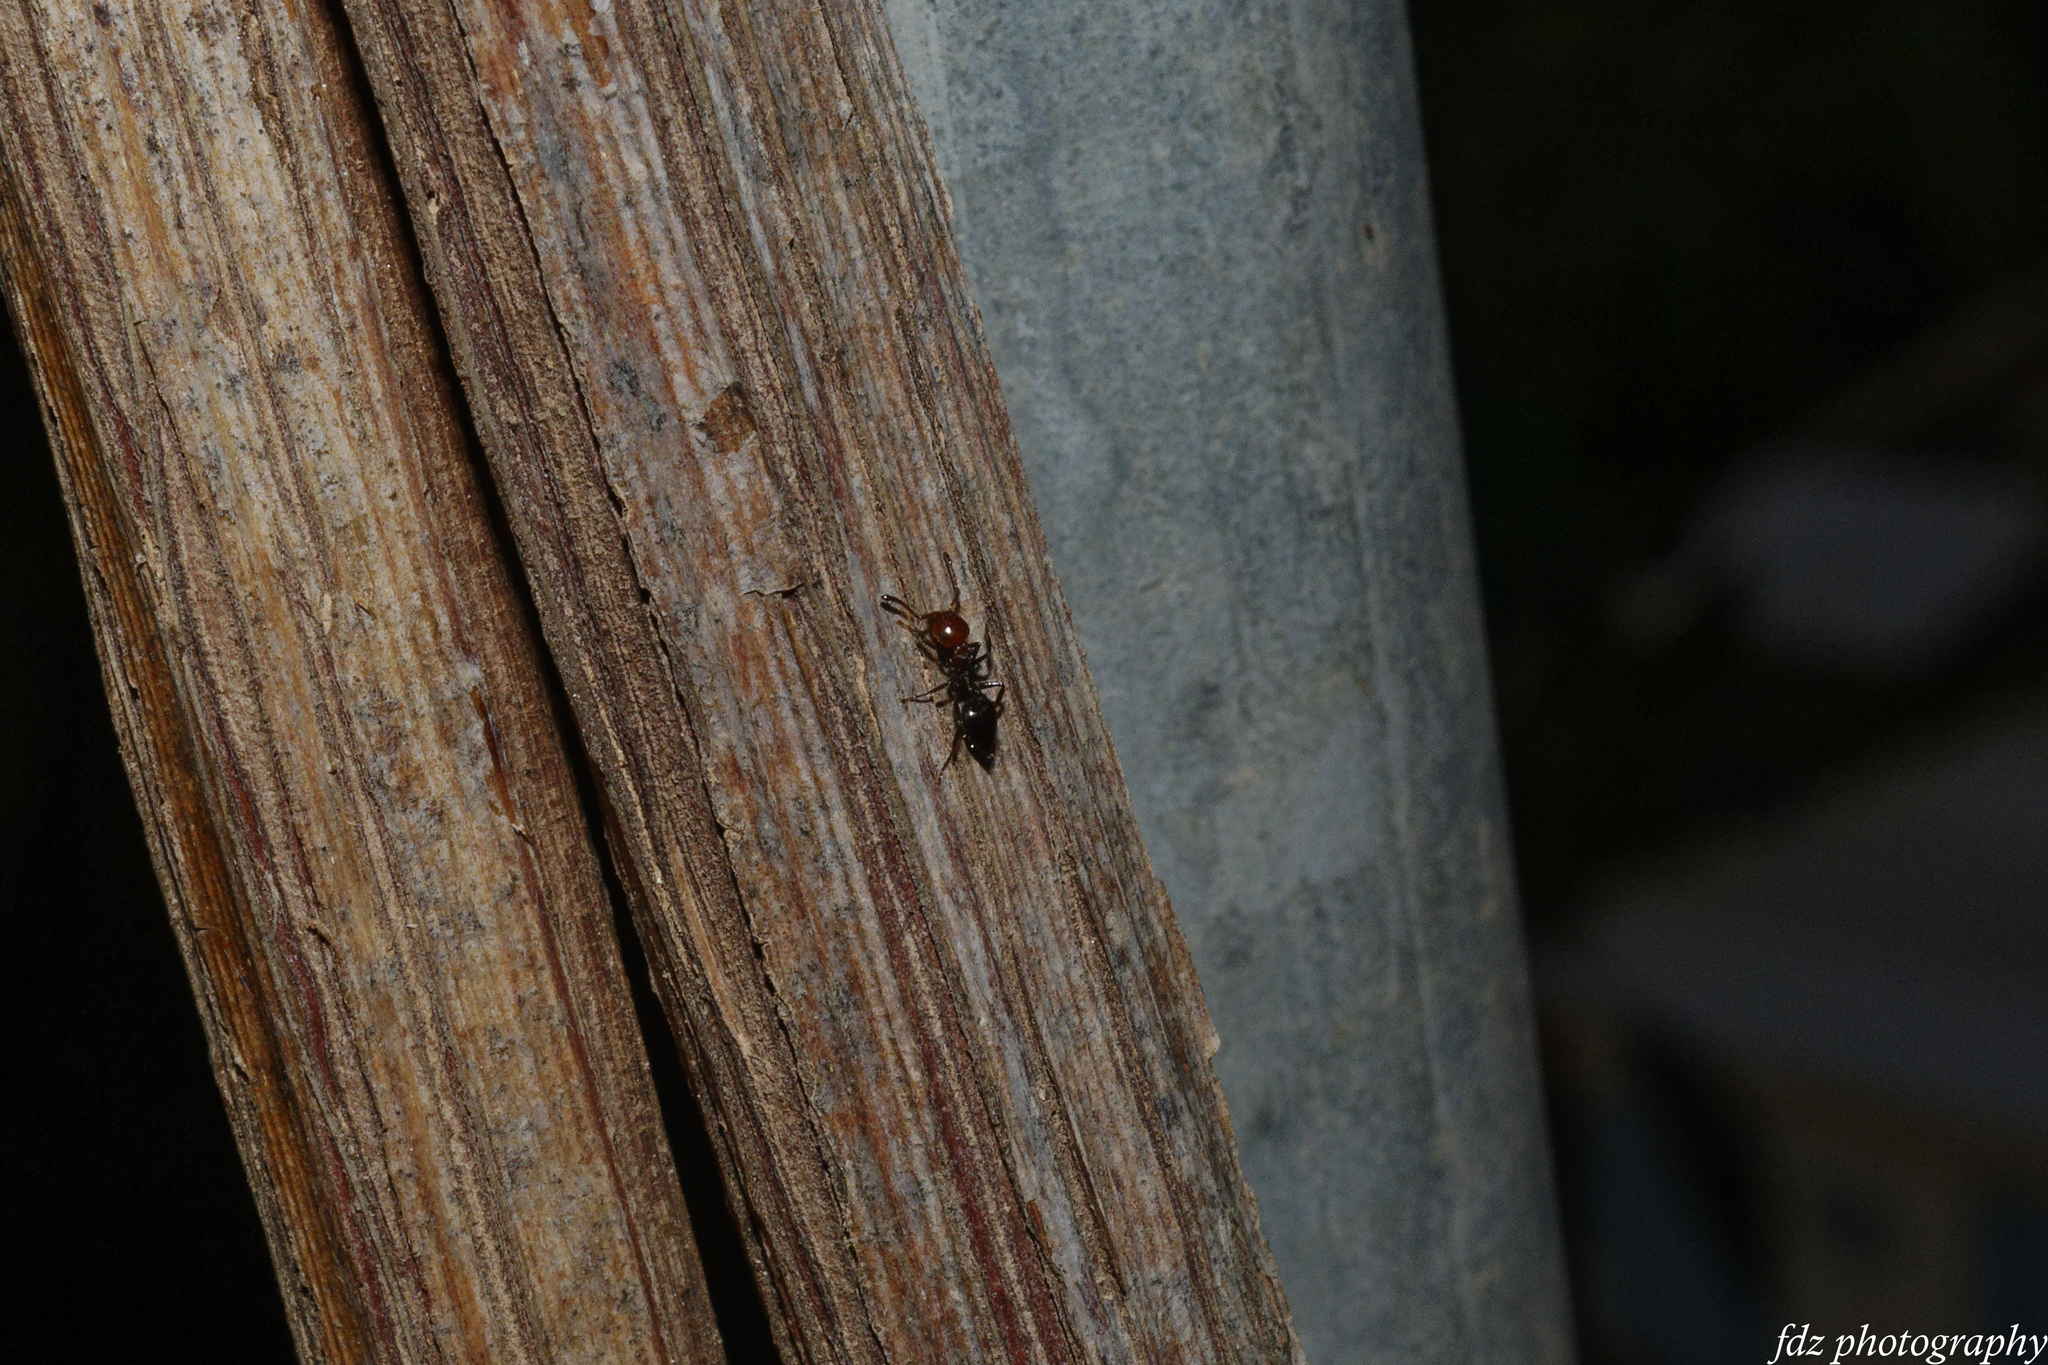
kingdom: Animalia
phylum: Arthropoda
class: Insecta
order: Hymenoptera
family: Formicidae
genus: Crematogaster
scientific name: Crematogaster scutellaris
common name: Fourmi du liège
